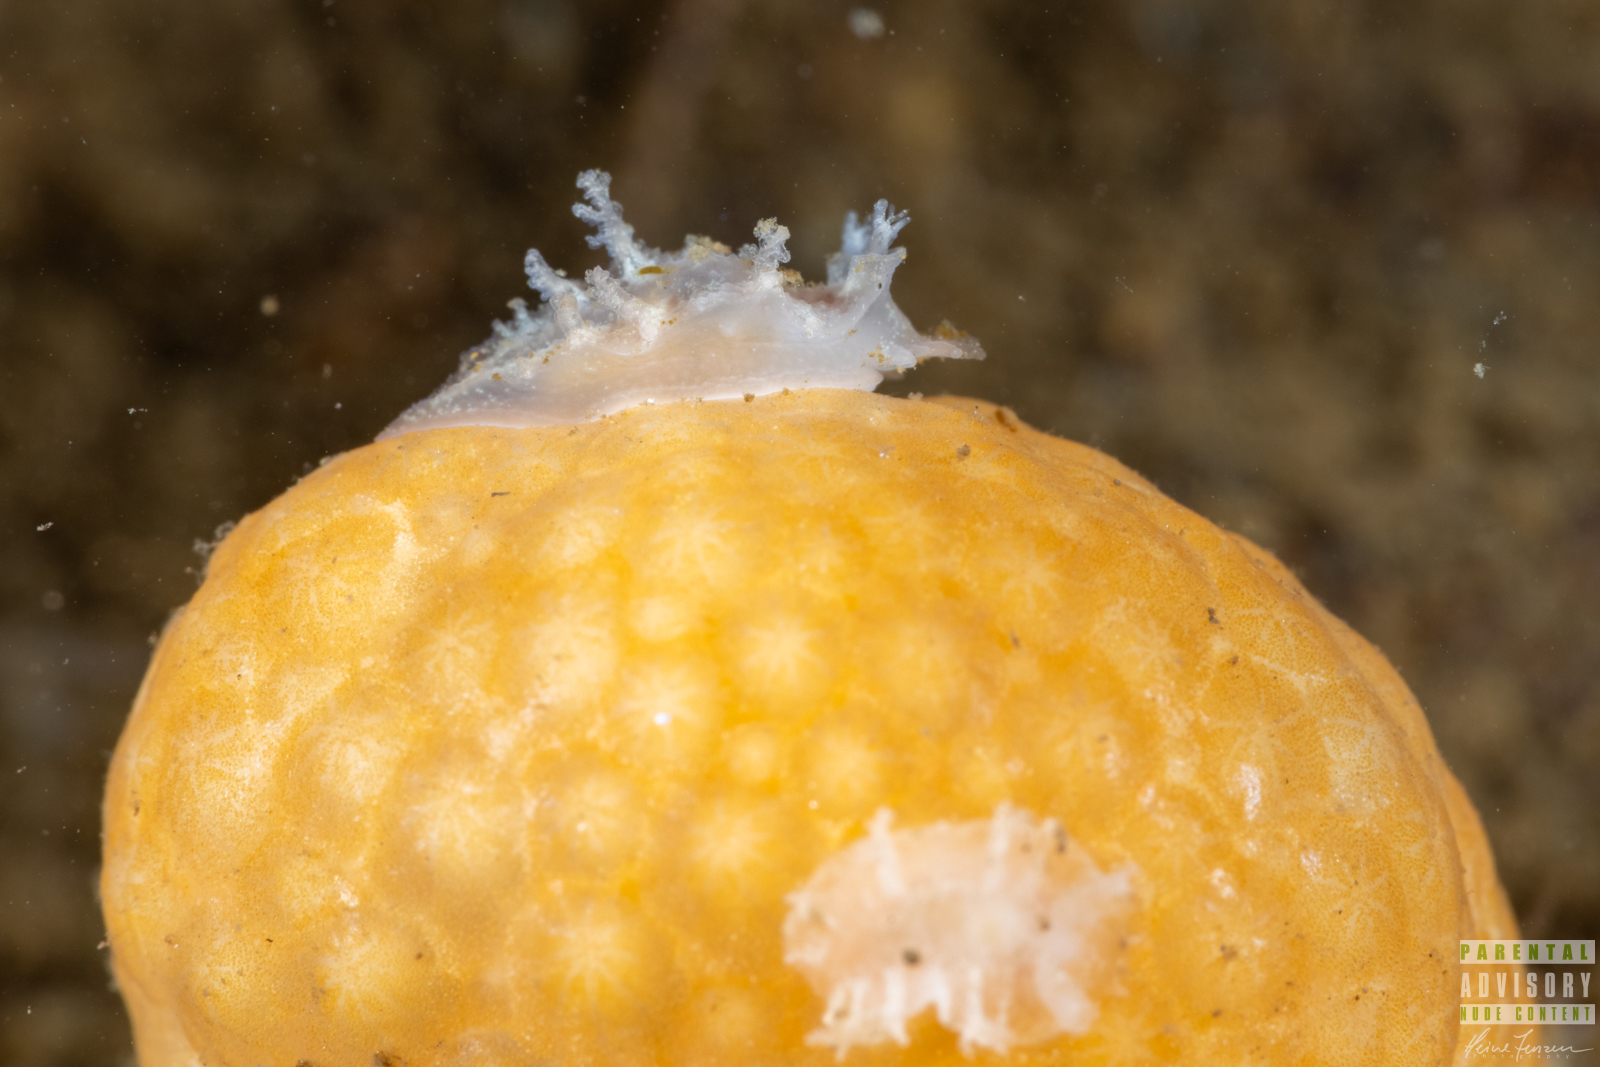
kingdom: Animalia
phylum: Mollusca
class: Gastropoda
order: Nudibranchia
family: Tritoniidae
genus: Duvaucelia
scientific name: Duvaucelia plebeia
